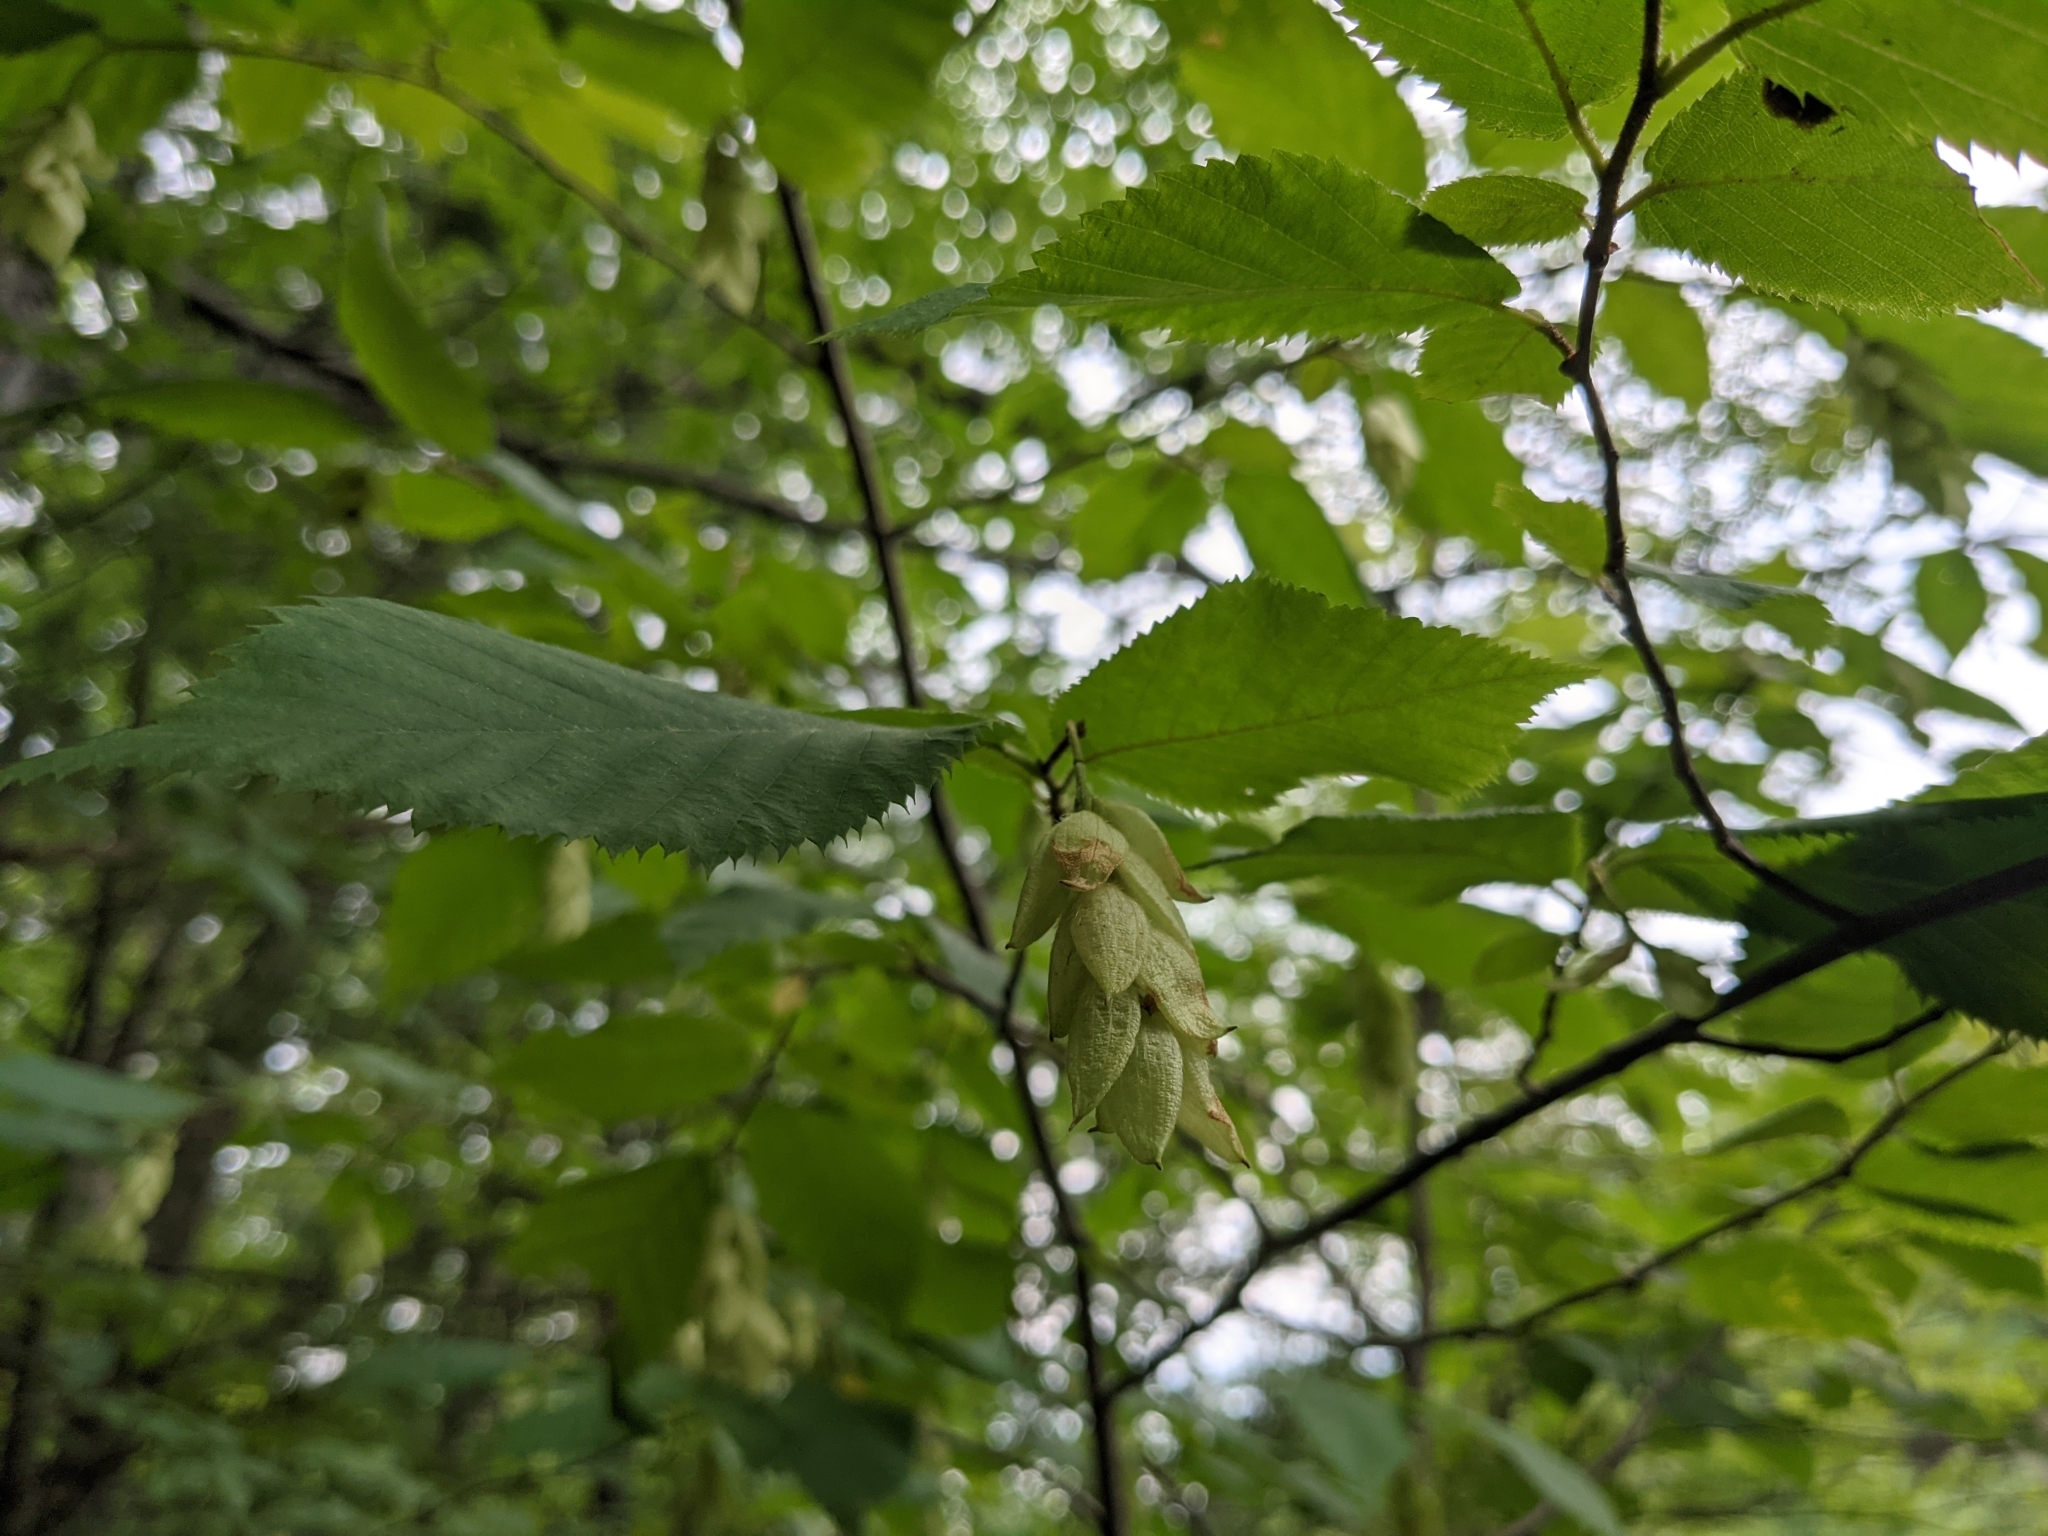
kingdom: Plantae
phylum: Tracheophyta
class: Magnoliopsida
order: Fagales
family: Betulaceae
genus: Ostrya
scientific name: Ostrya virginiana
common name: Ironwood
